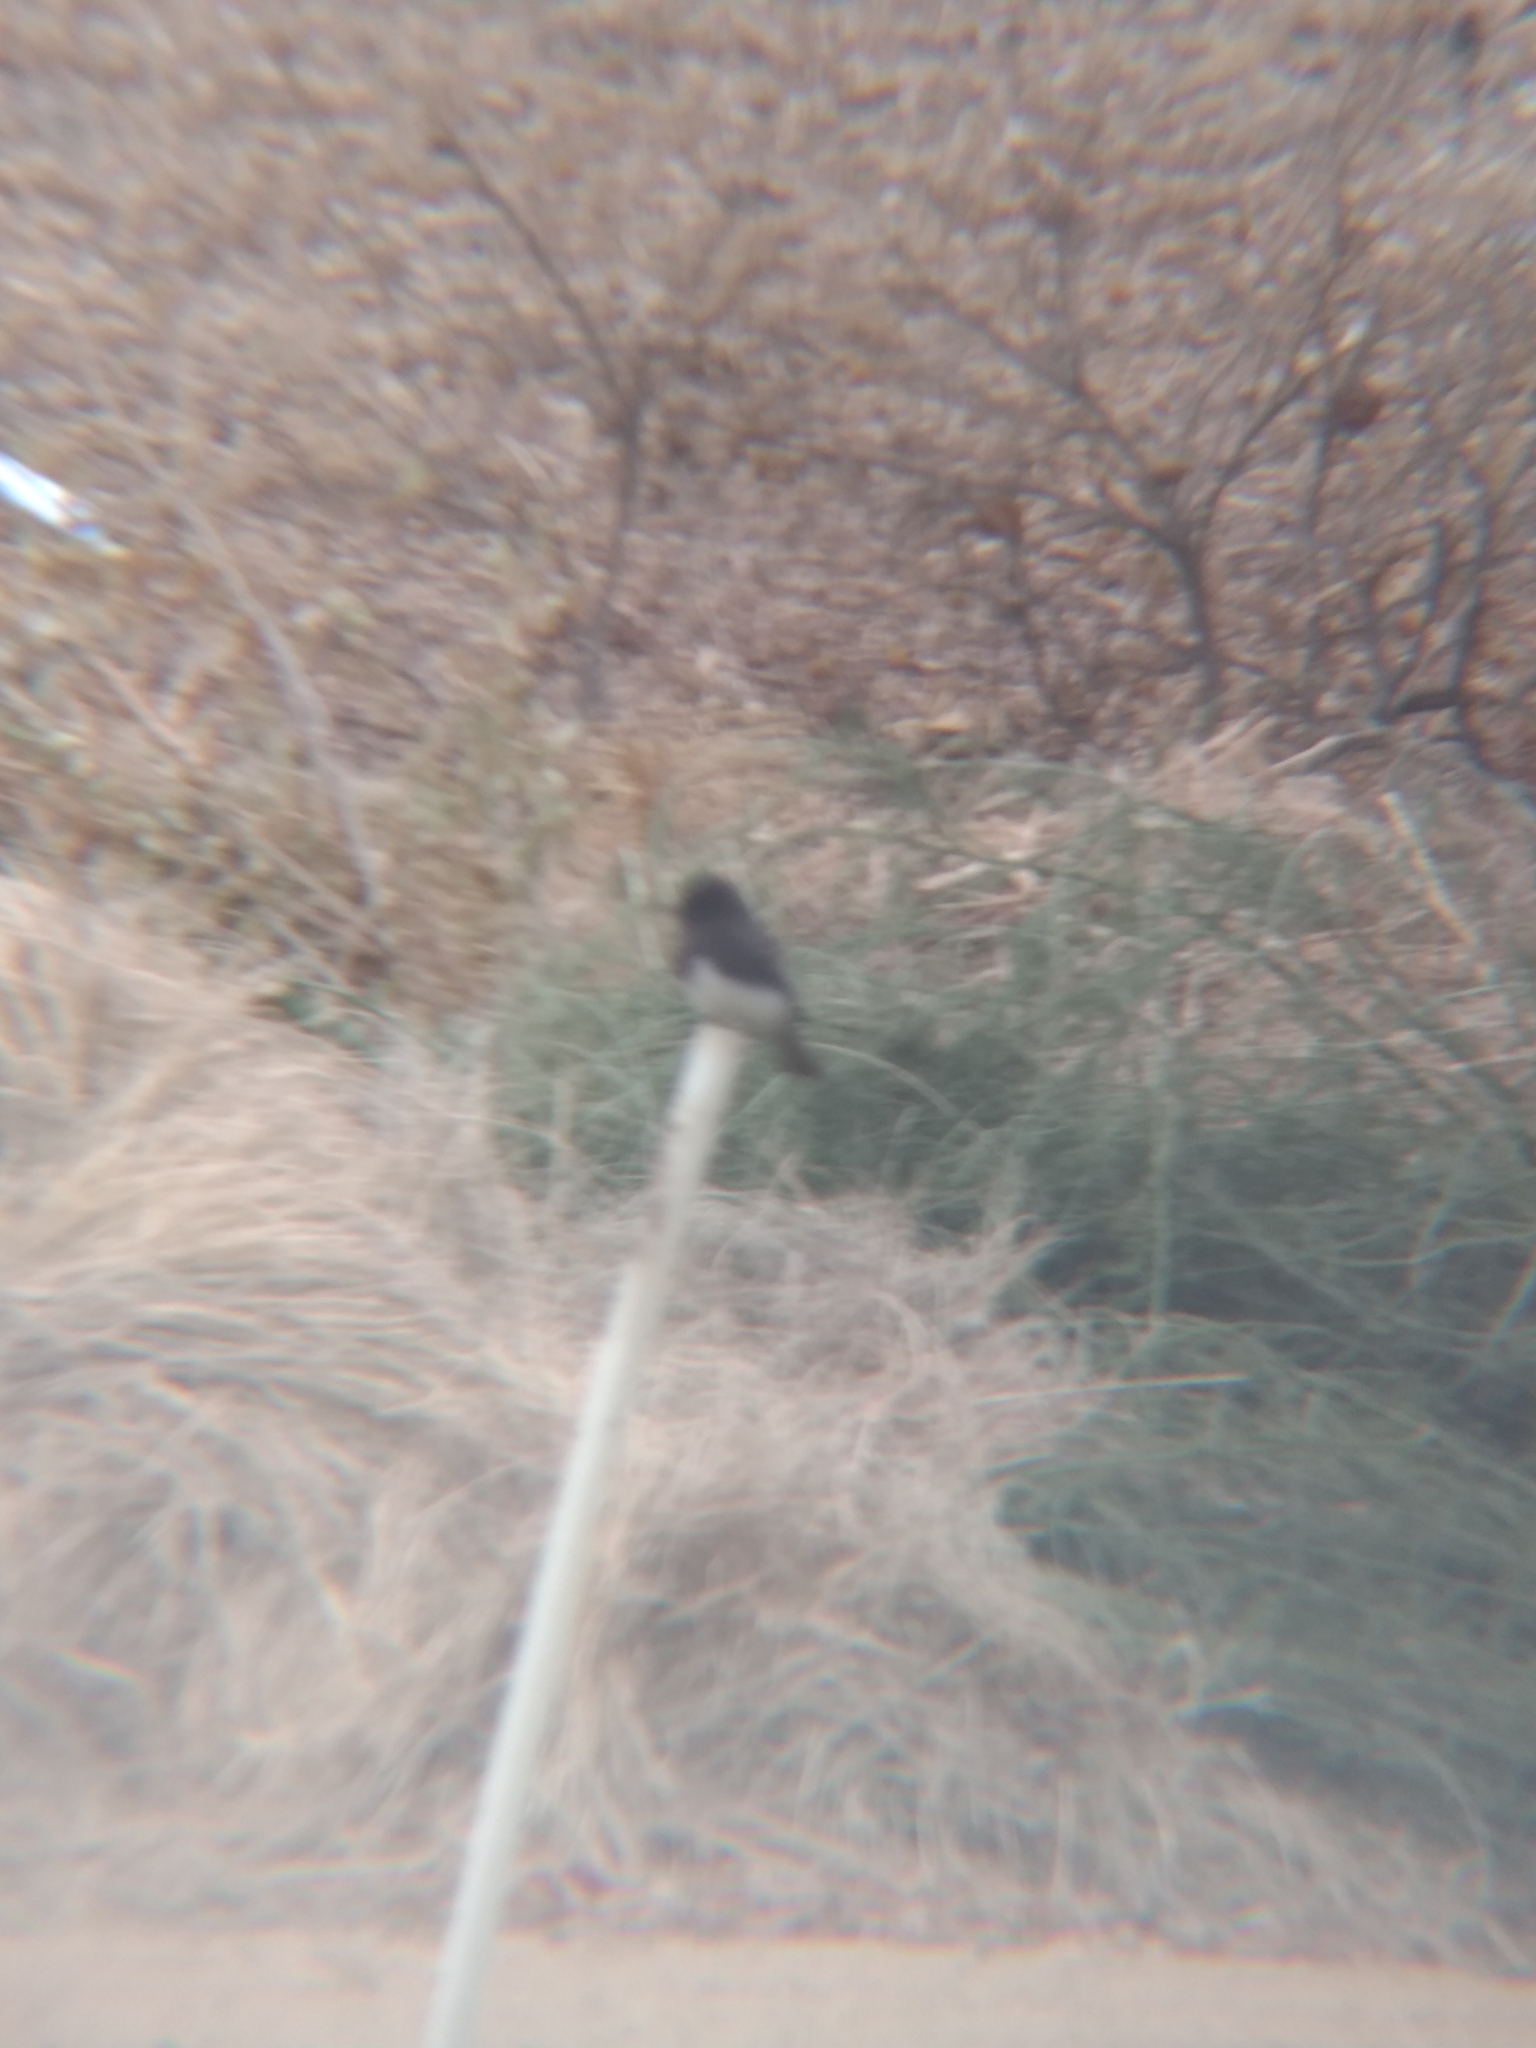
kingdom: Animalia
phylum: Chordata
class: Aves
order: Passeriformes
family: Tyrannidae
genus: Sayornis
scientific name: Sayornis nigricans
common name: Black phoebe
